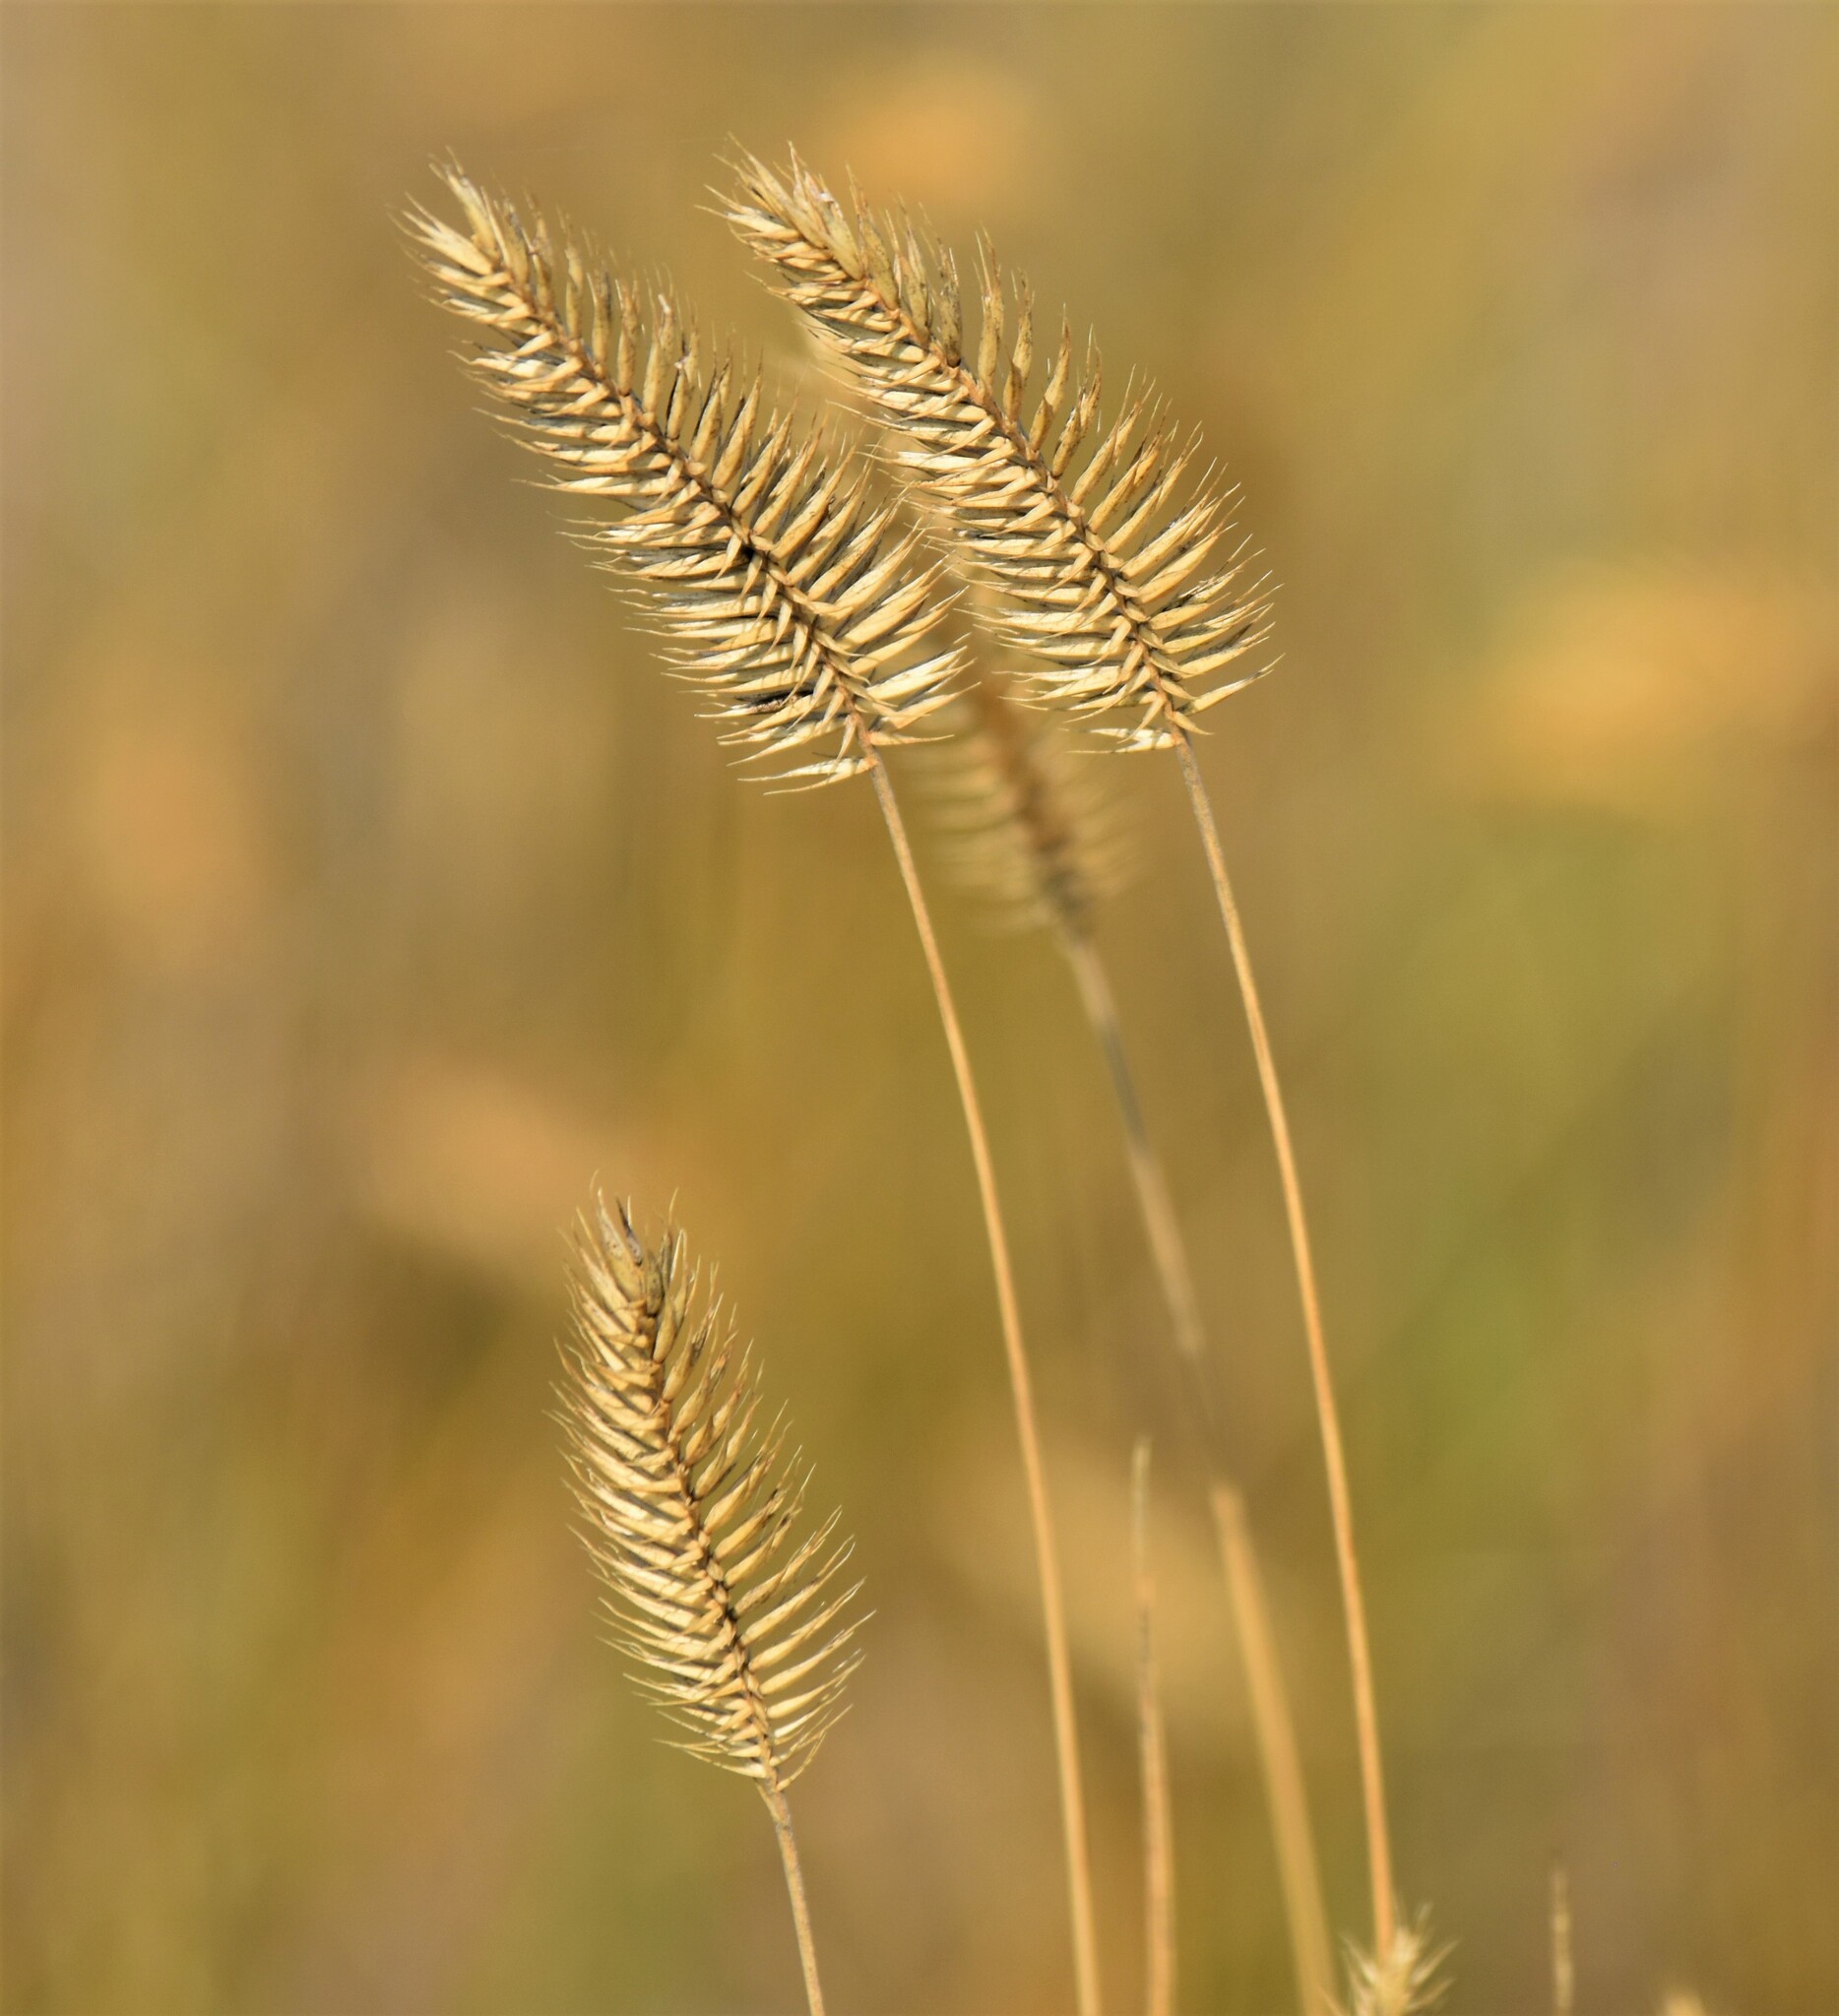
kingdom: Plantae
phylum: Tracheophyta
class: Liliopsida
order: Poales
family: Poaceae
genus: Agropyron
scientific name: Agropyron cristatum
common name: Crested wheatgrass
